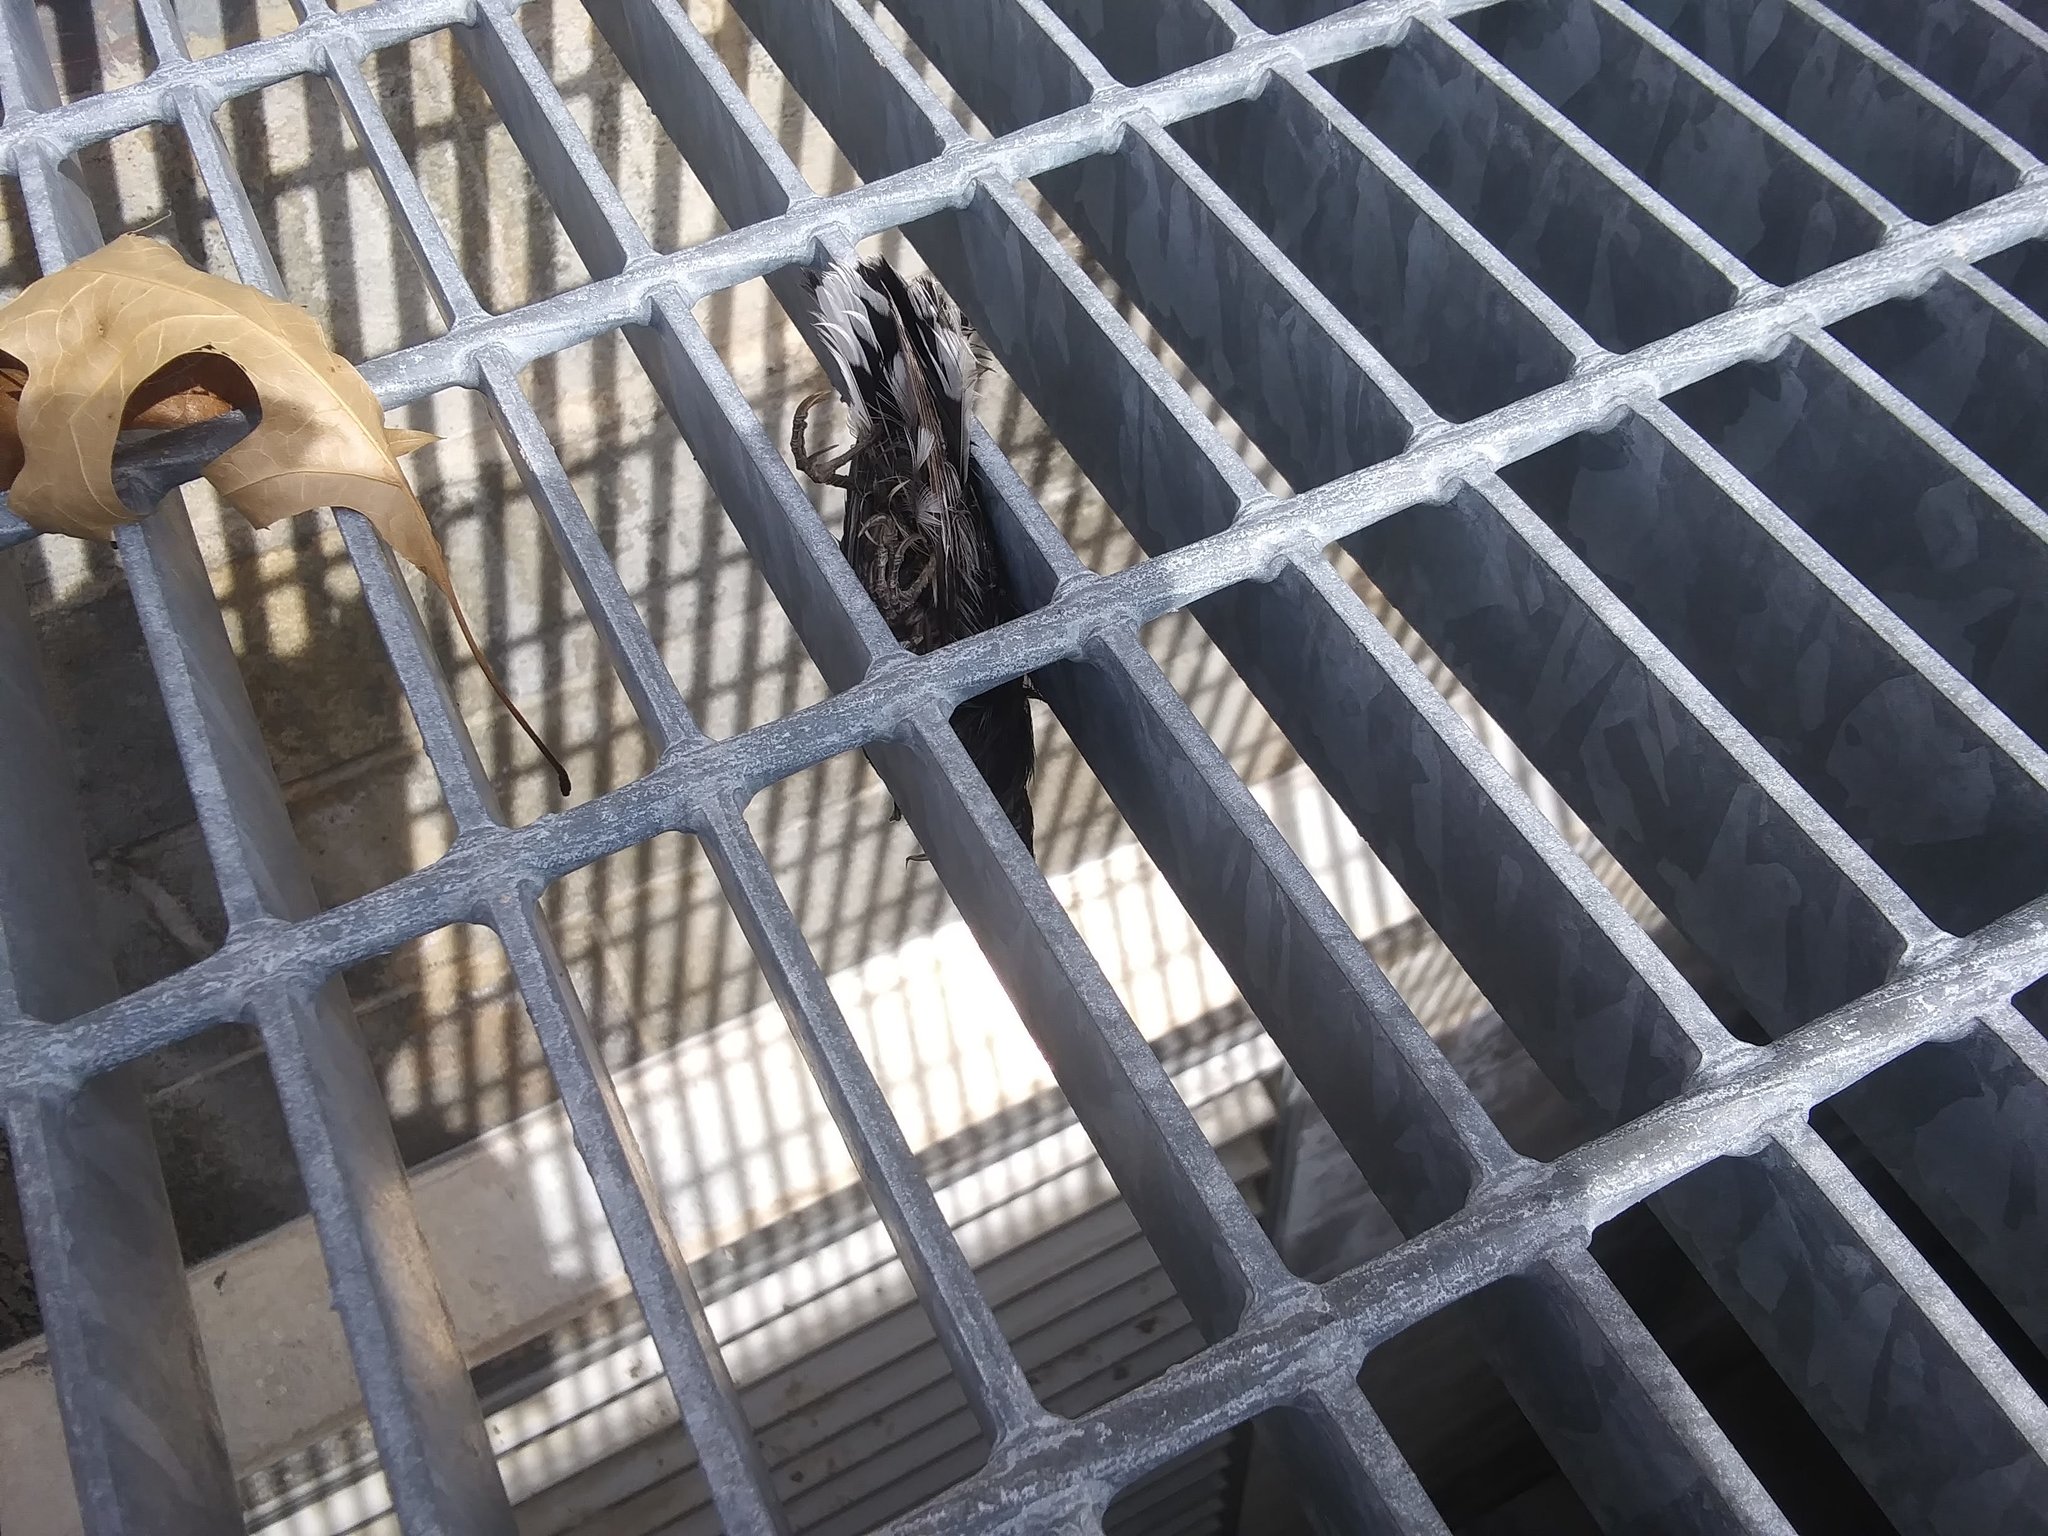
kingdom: Animalia
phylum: Chordata
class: Aves
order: Passeriformes
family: Sittidae
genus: Sitta
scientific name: Sitta carolinensis
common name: White-breasted nuthatch
